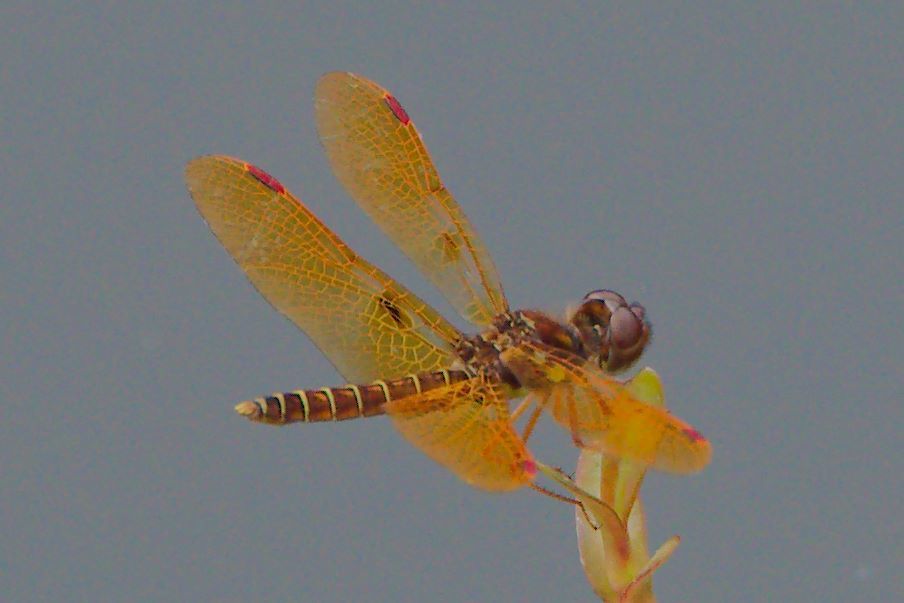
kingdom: Animalia
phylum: Arthropoda
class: Insecta
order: Odonata
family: Libellulidae
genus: Perithemis
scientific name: Perithemis tenera
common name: Eastern amberwing
